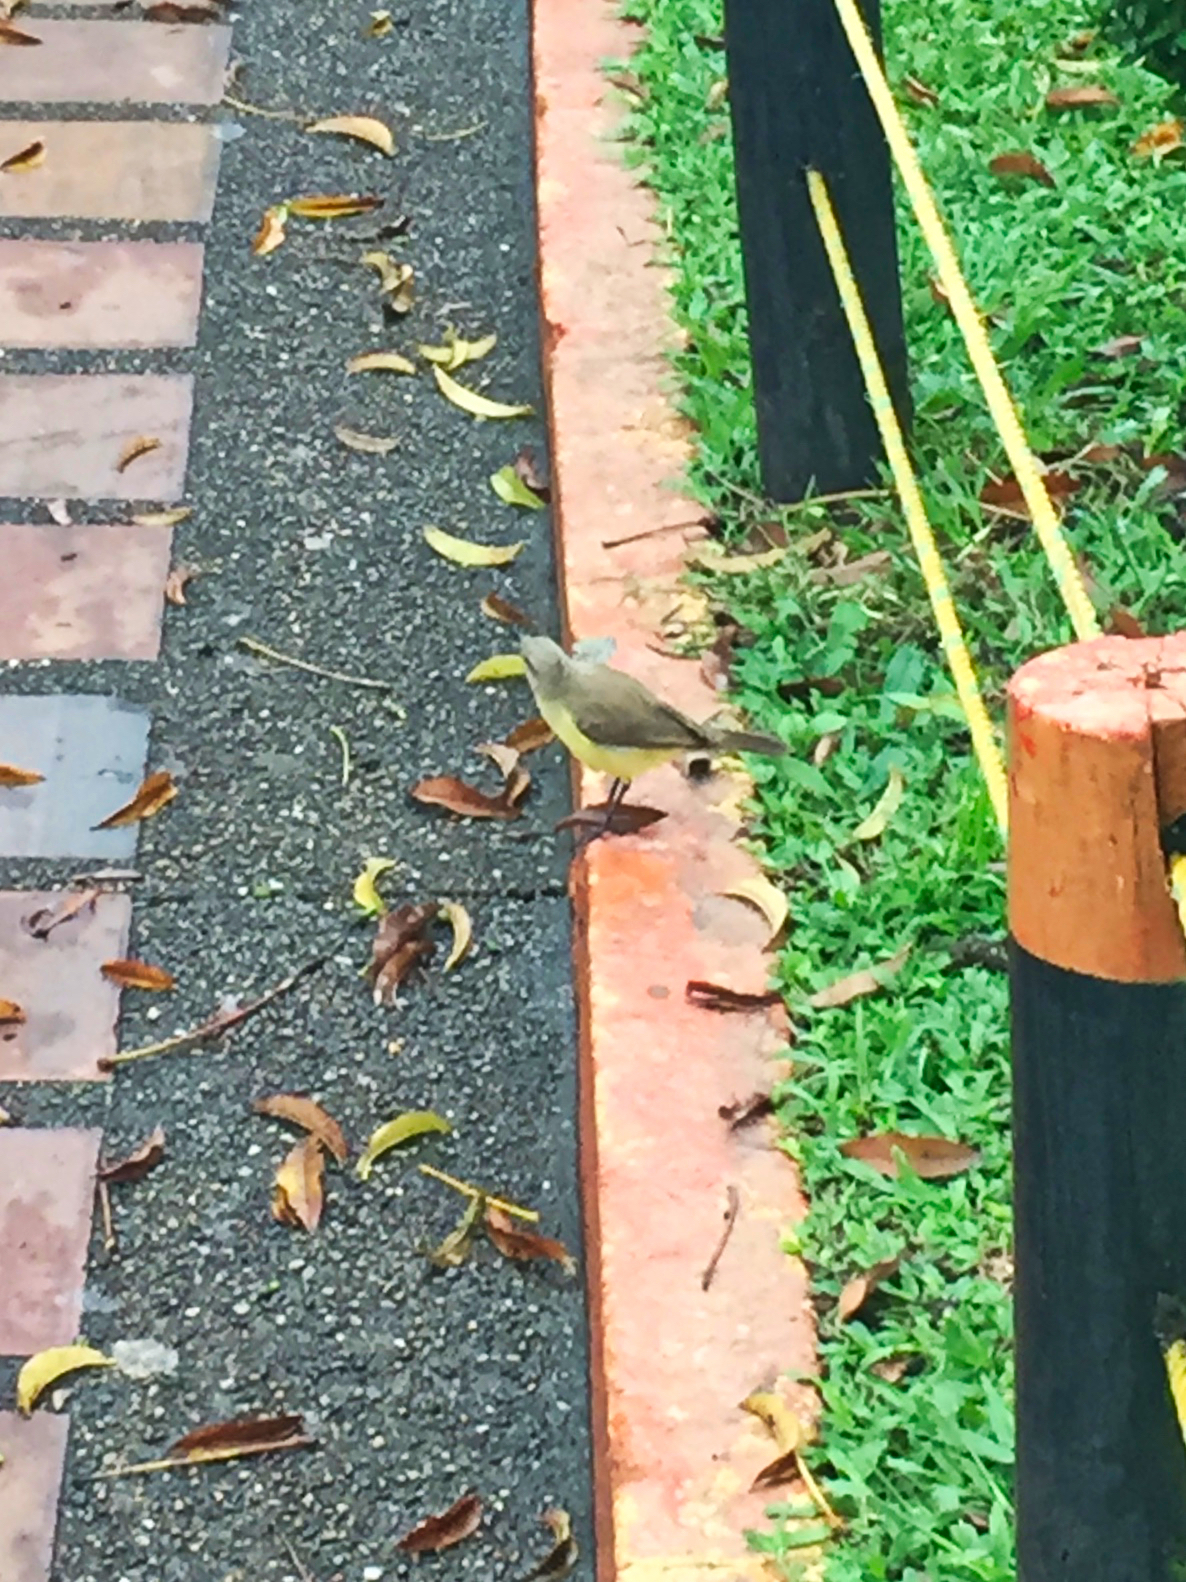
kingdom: Animalia
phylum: Chordata
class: Aves
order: Passeriformes
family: Tyrannidae
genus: Machetornis
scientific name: Machetornis rixosa
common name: Cattle tyrant
